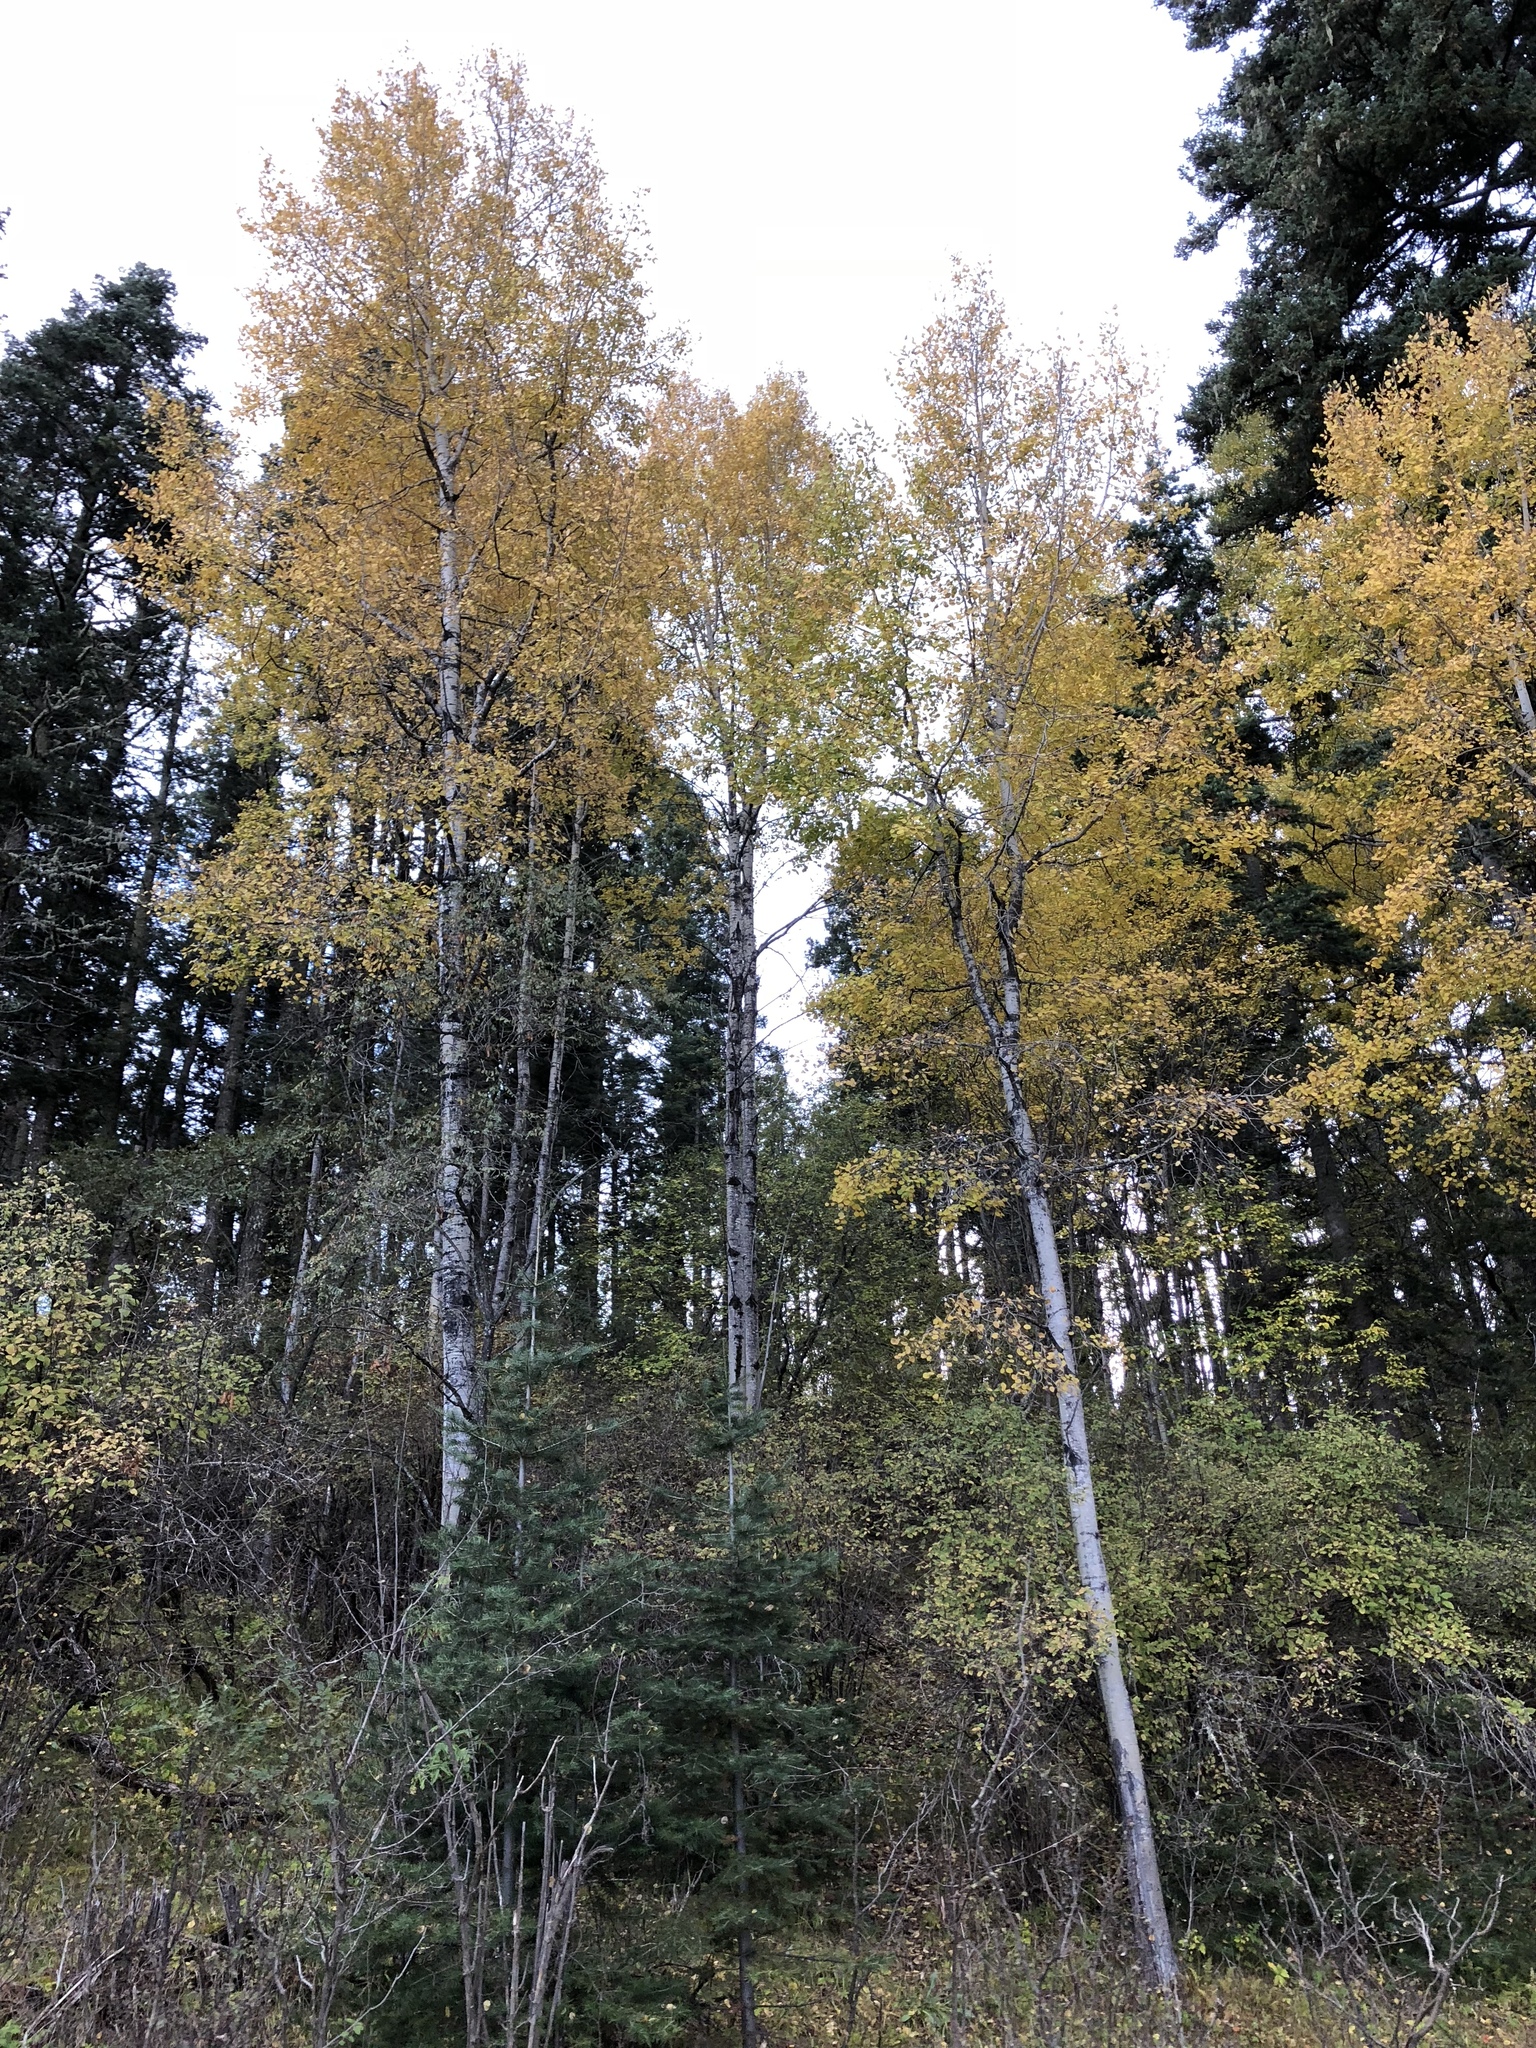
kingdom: Plantae
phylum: Tracheophyta
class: Magnoliopsida
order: Malpighiales
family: Salicaceae
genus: Populus
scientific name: Populus tremuloides
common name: Quaking aspen
